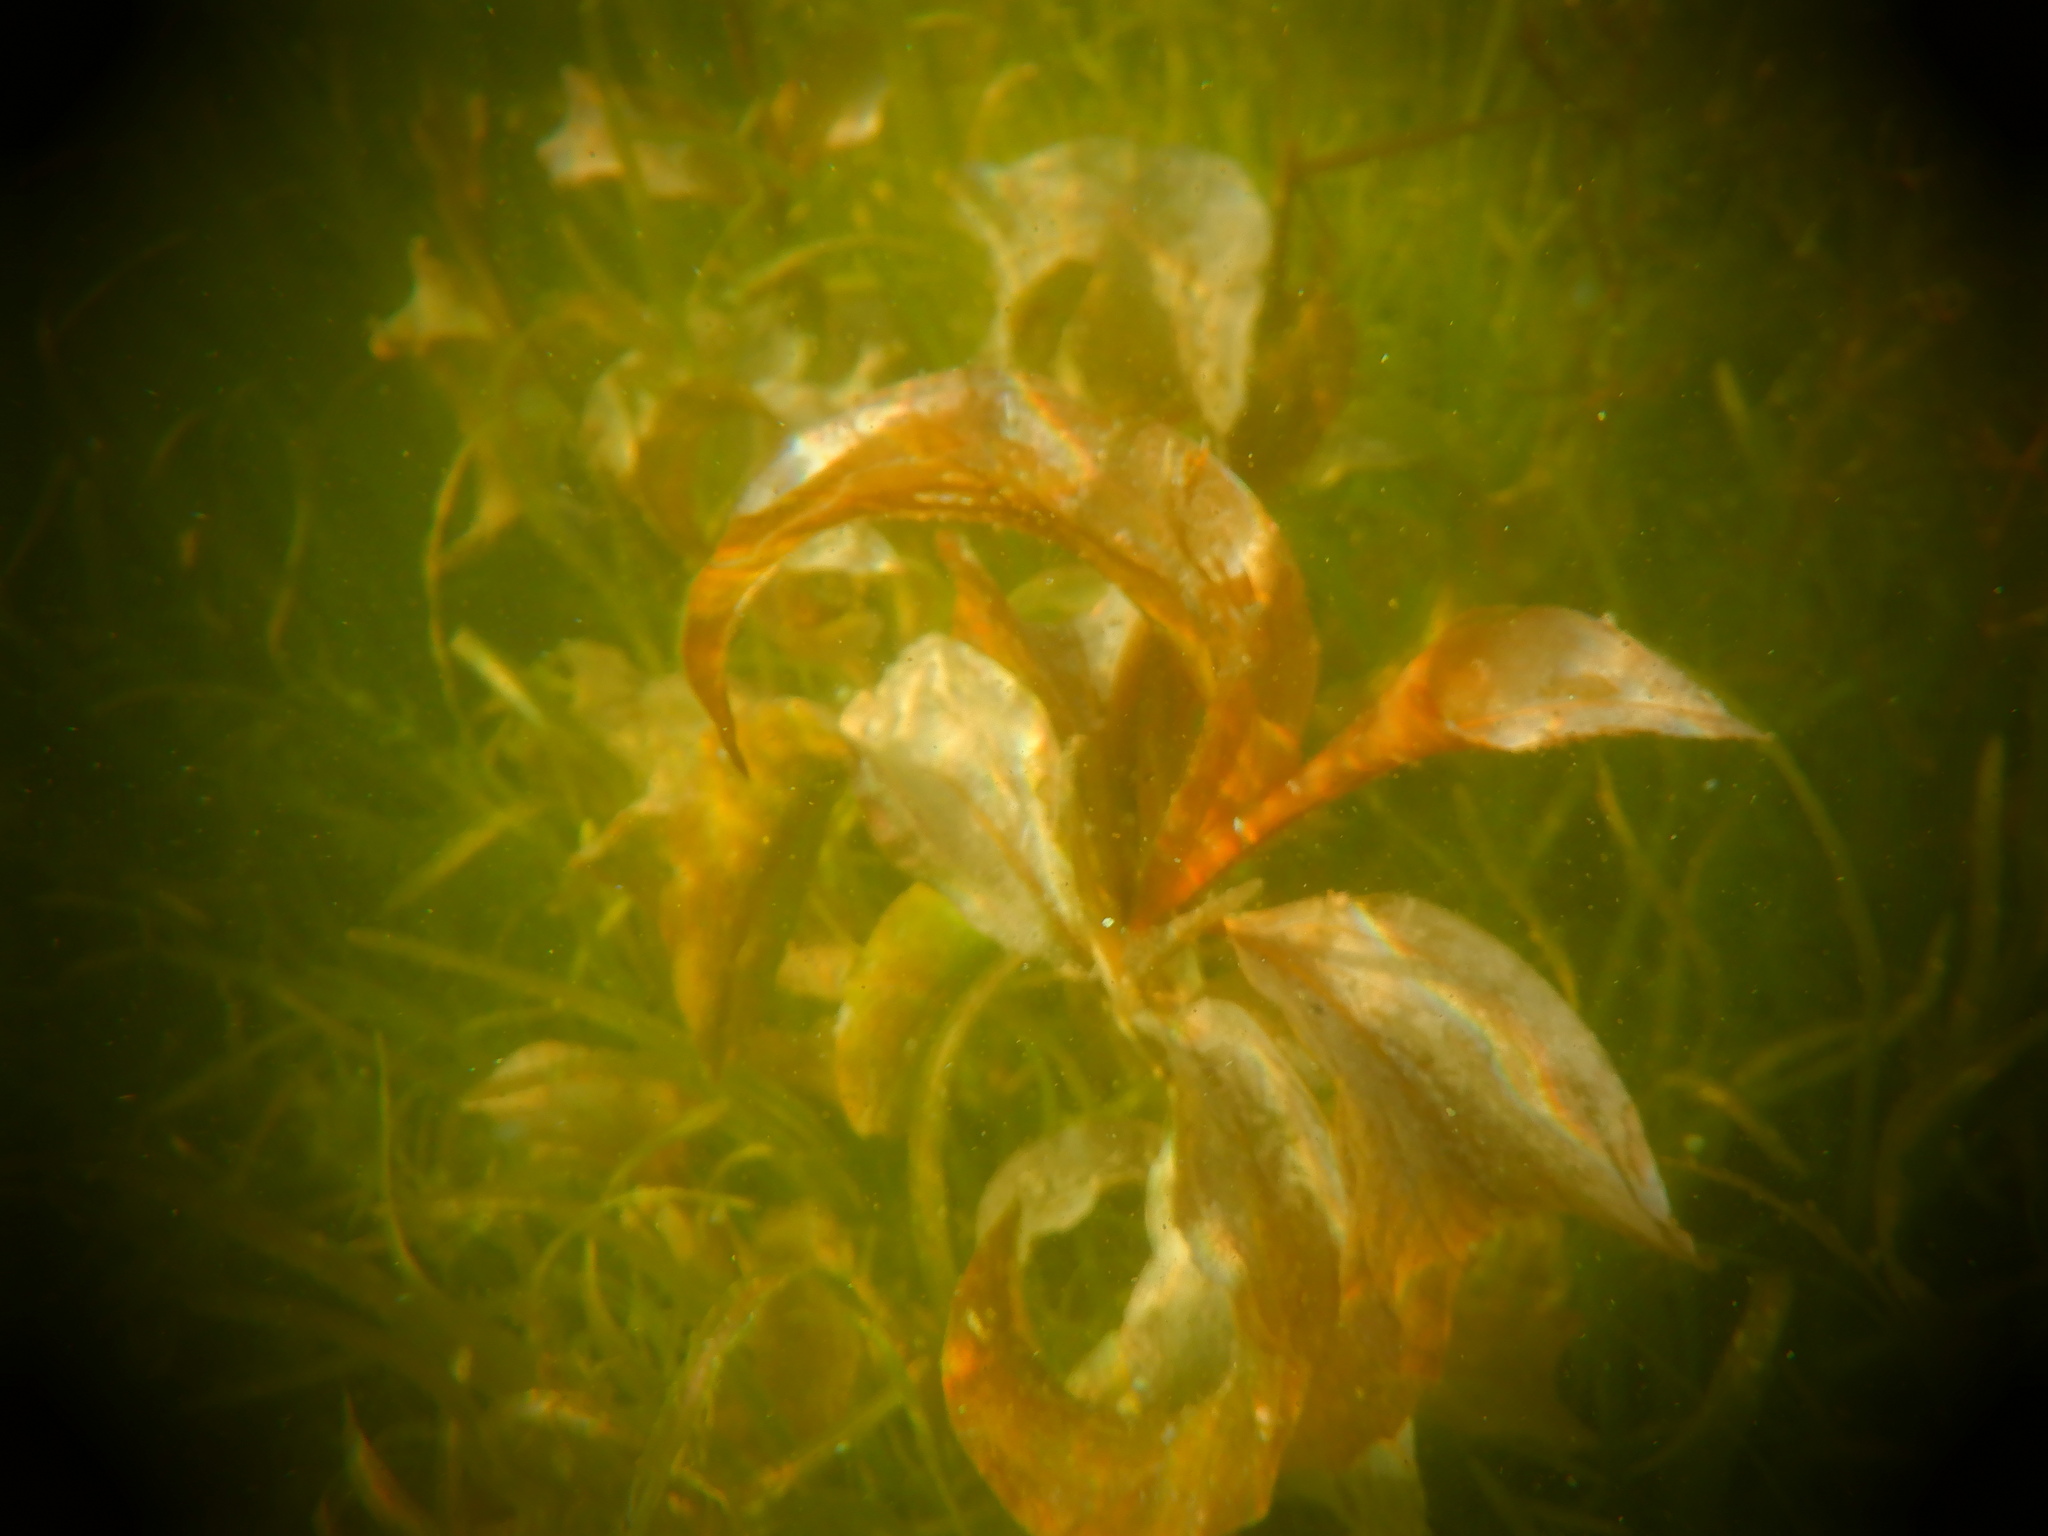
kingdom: Plantae
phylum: Tracheophyta
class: Liliopsida
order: Alismatales
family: Potamogetonaceae
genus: Potamogeton
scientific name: Potamogeton amplifolius
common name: Broad-leaved pondweed
